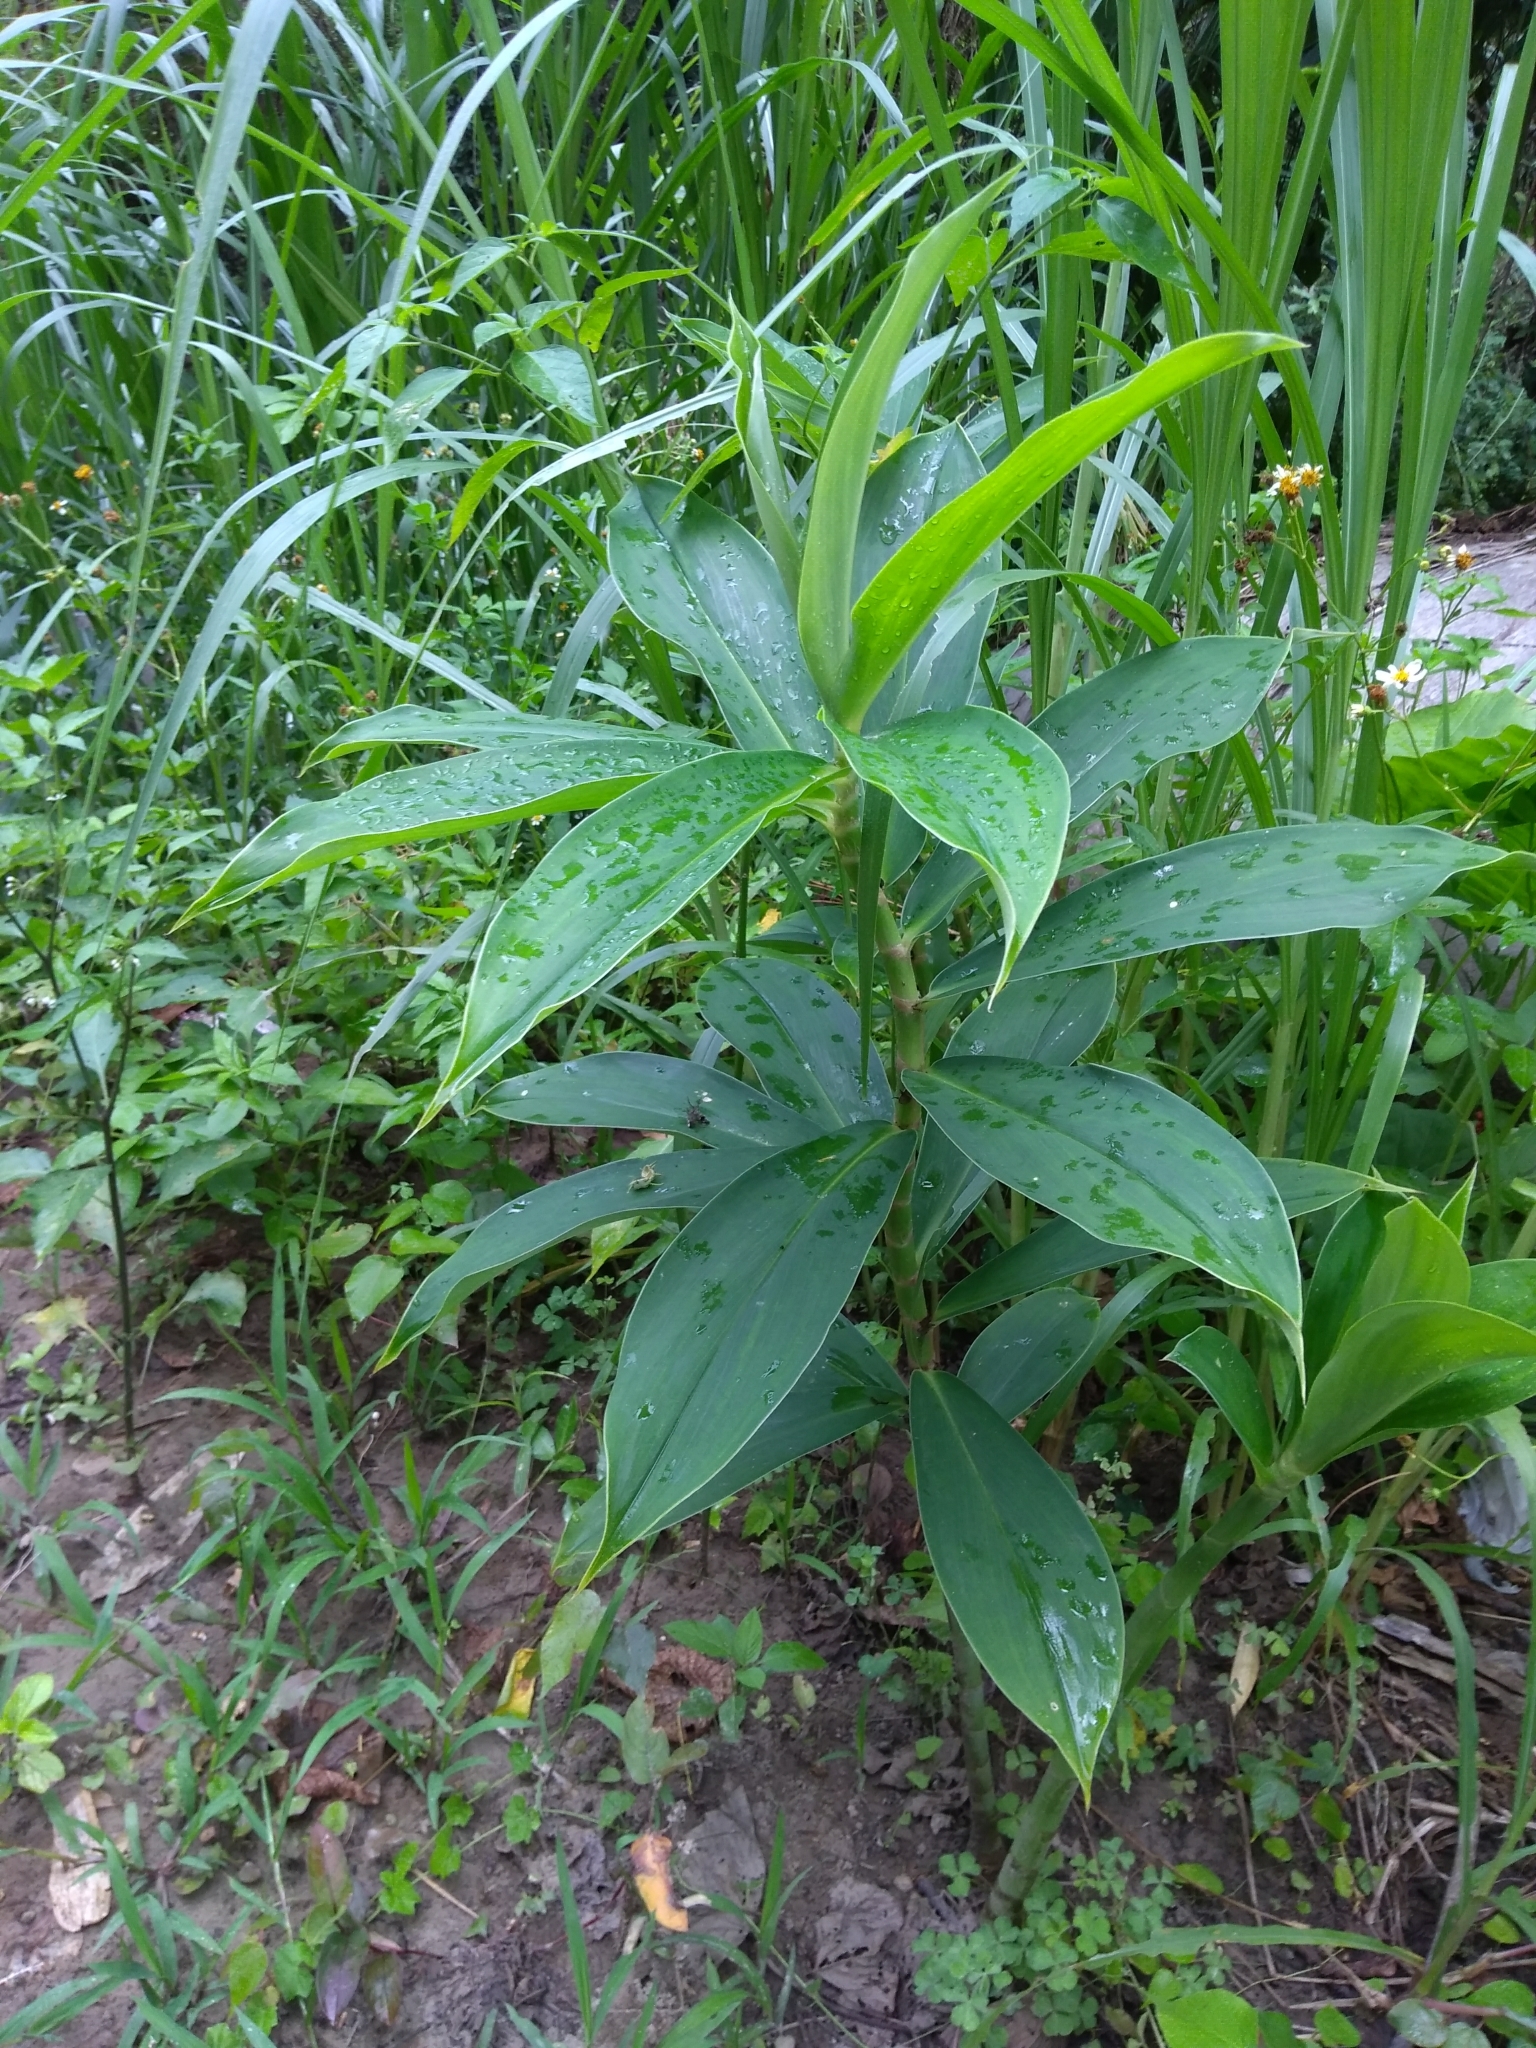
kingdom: Plantae
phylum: Tracheophyta
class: Liliopsida
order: Zingiberales
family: Costaceae
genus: Hellenia
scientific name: Hellenia speciosa
